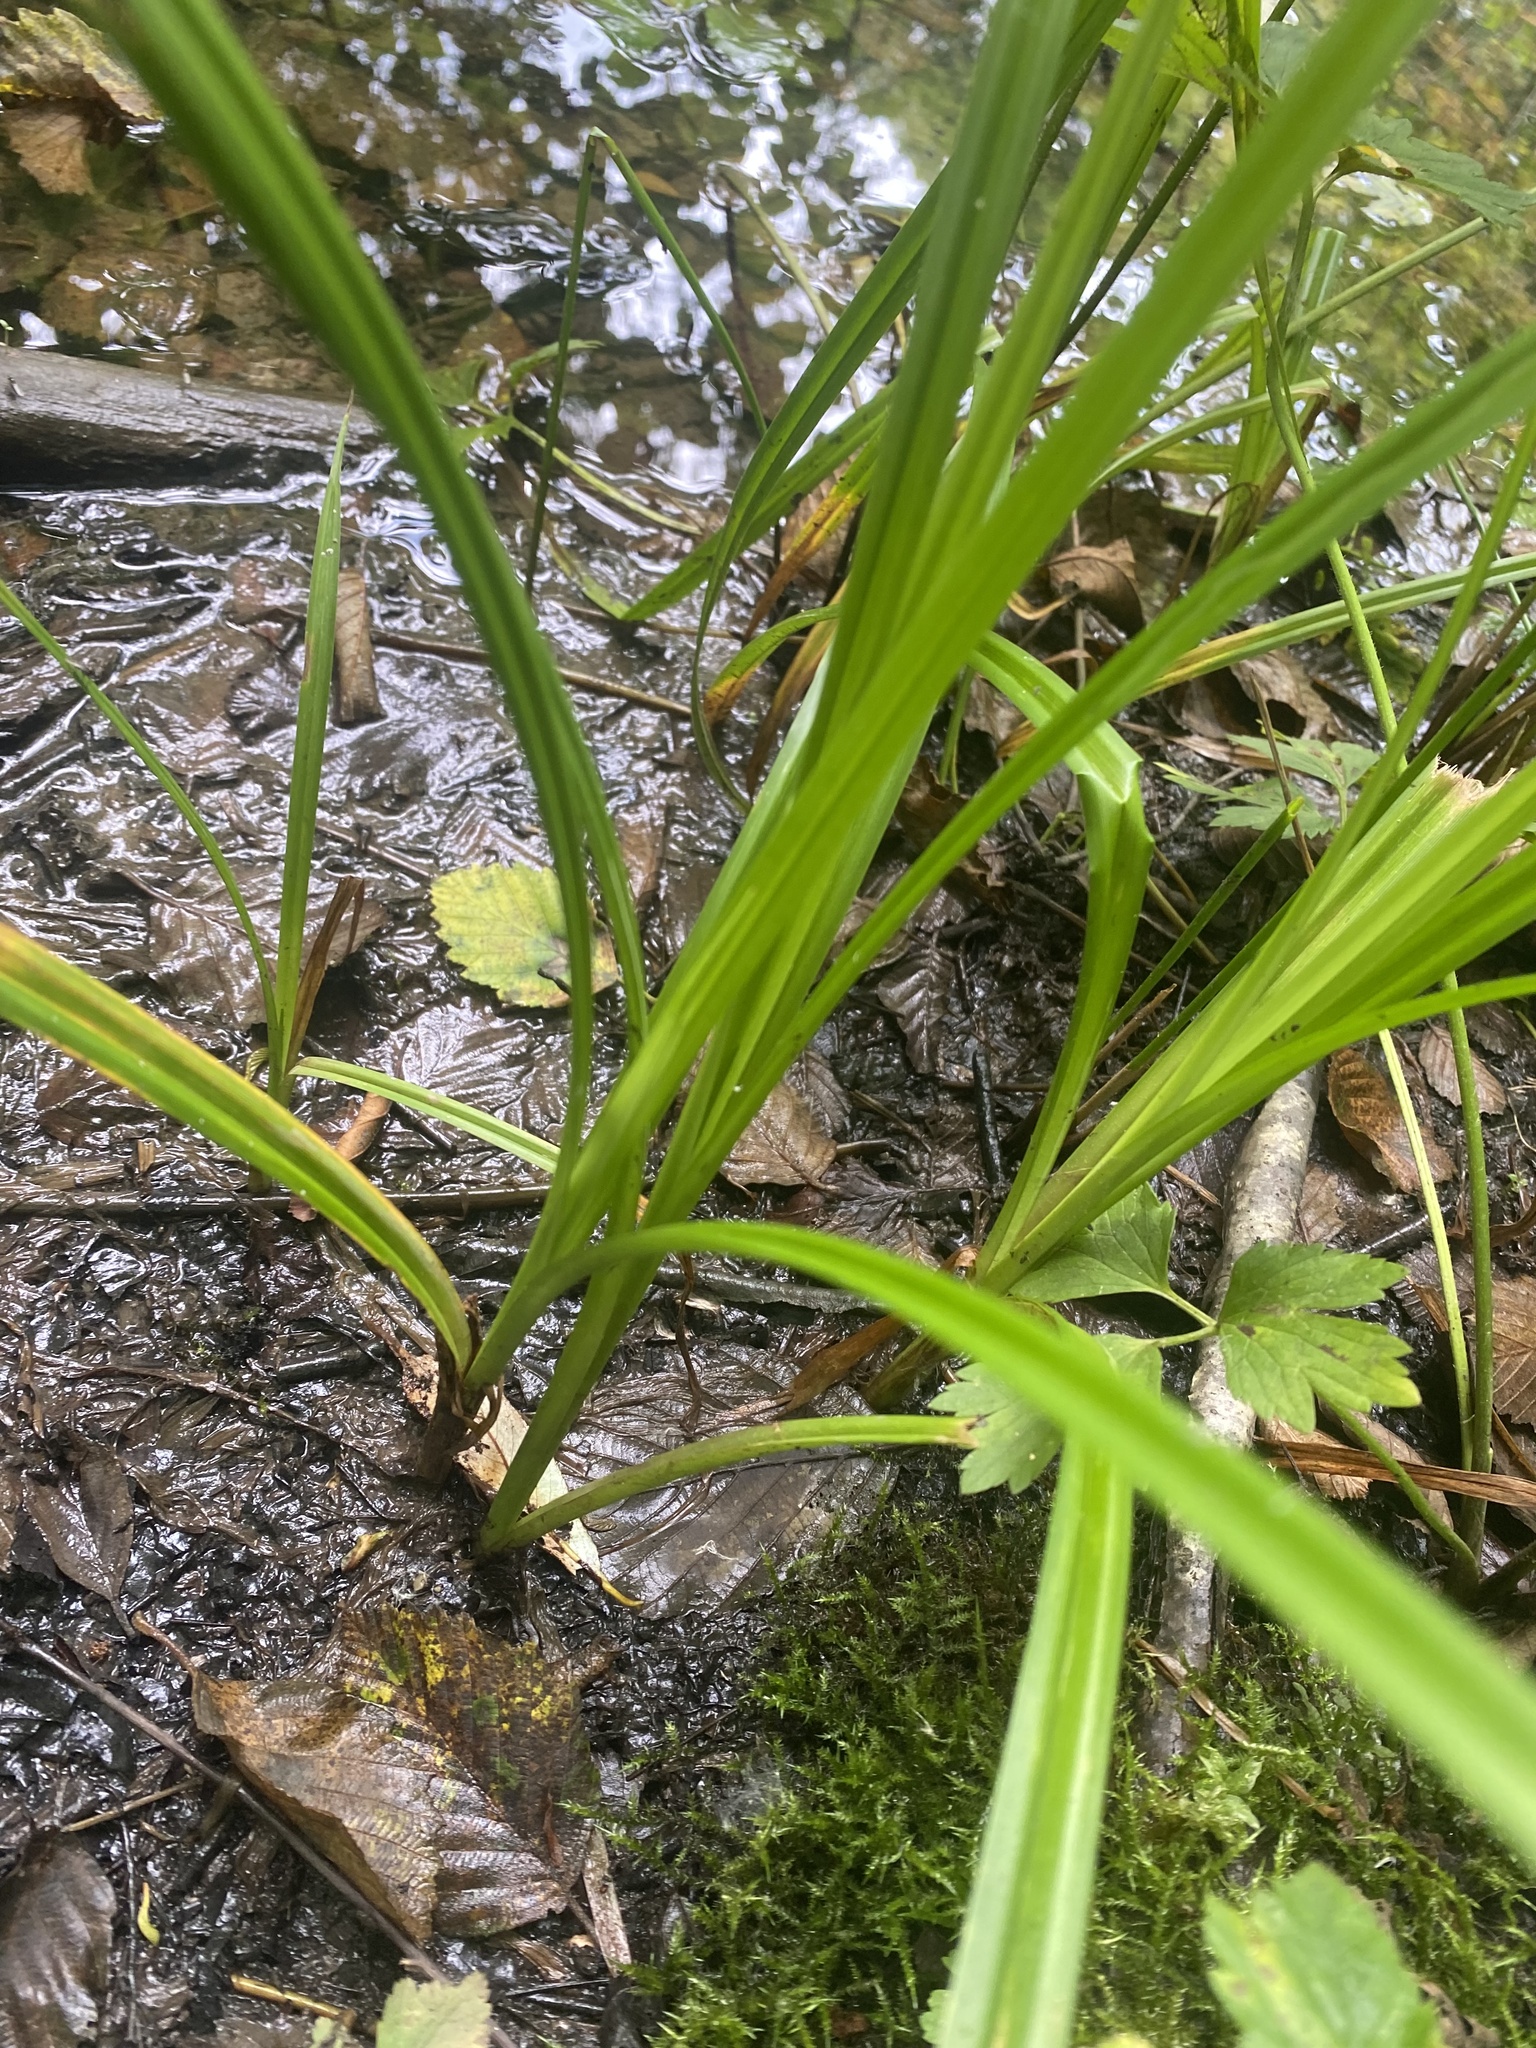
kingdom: Plantae
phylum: Tracheophyta
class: Liliopsida
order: Poales
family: Cyperaceae
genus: Scirpus
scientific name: Scirpus sylvaticus
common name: Wood club-rush
